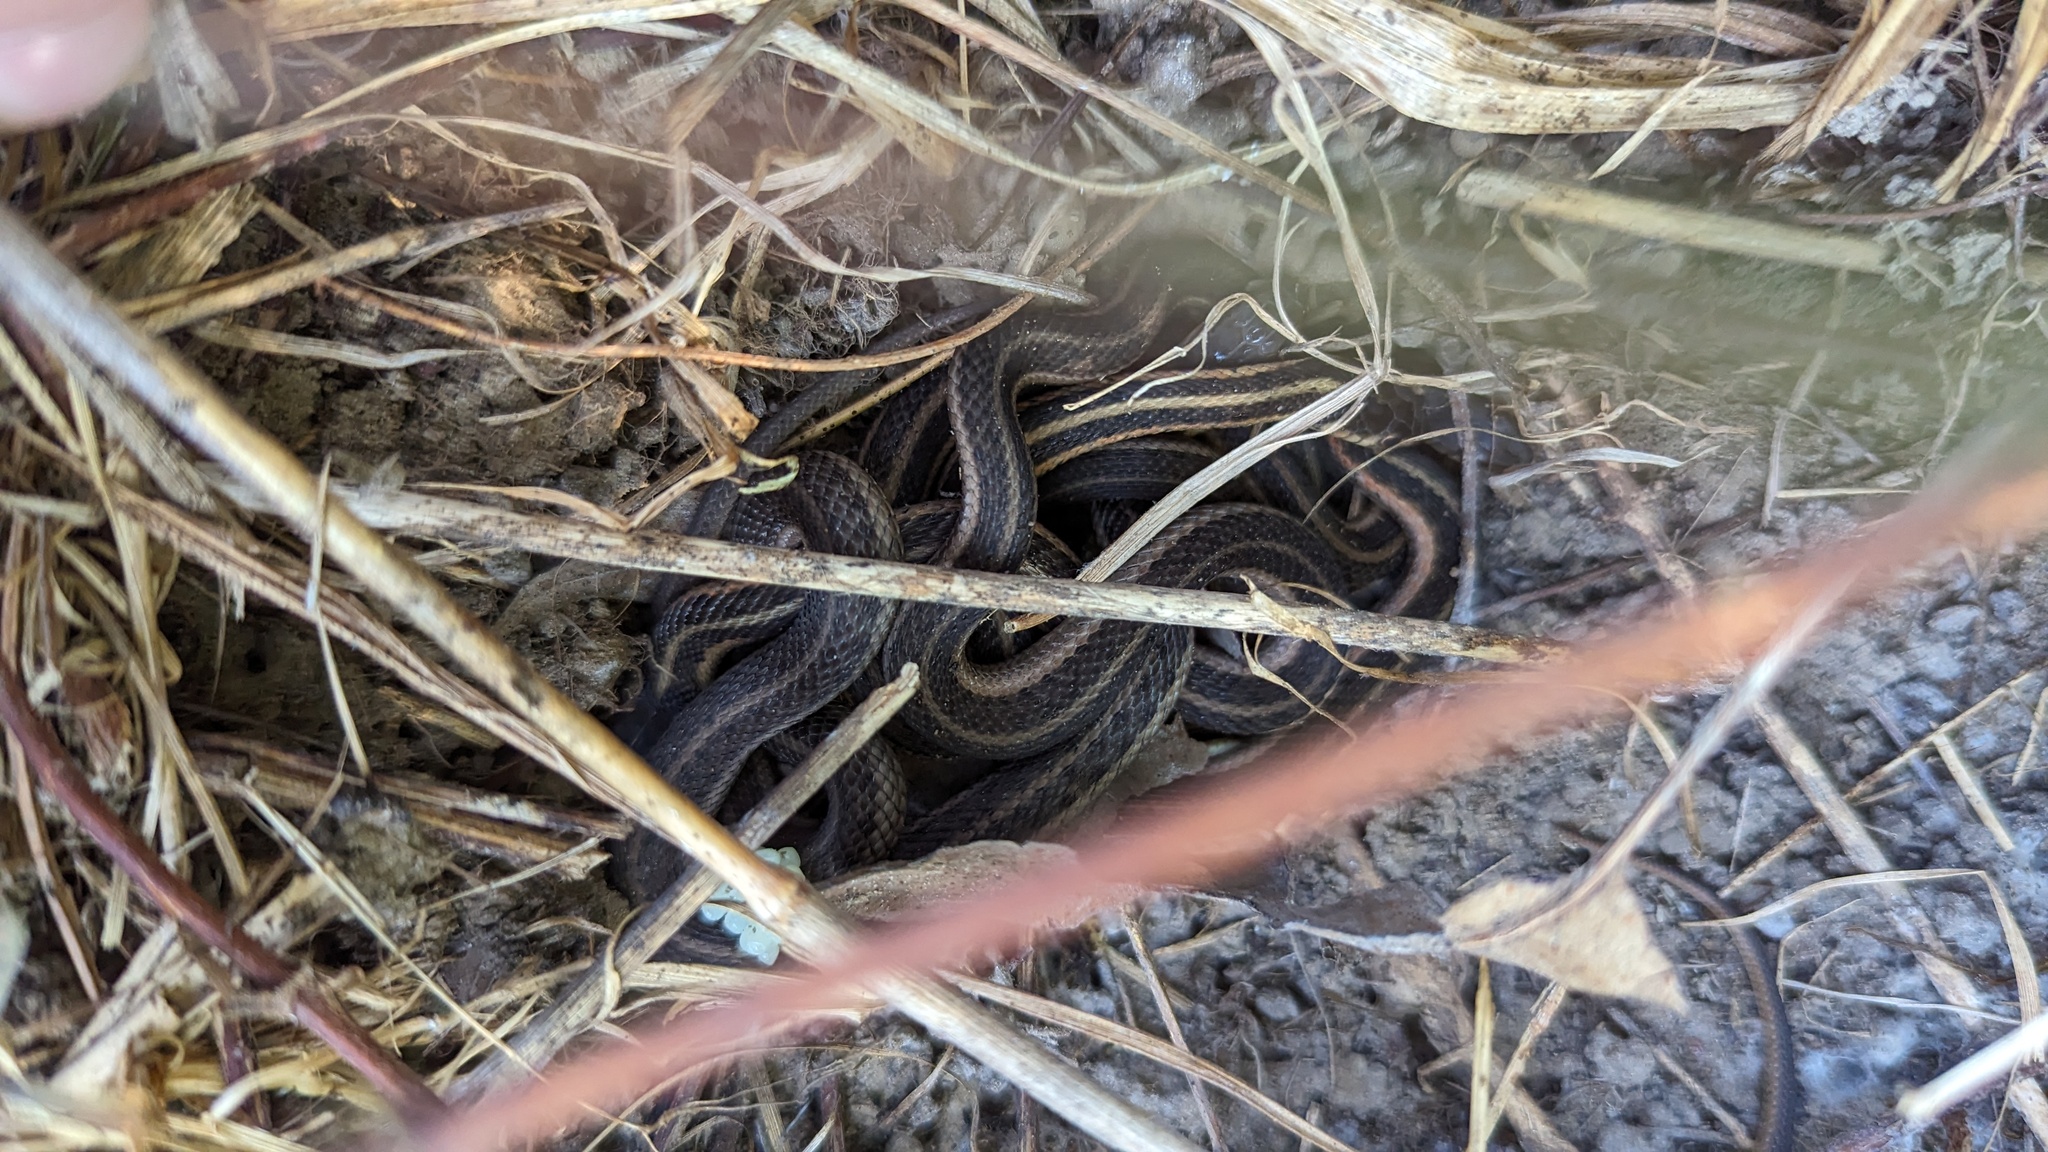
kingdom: Animalia
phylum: Chordata
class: Squamata
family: Colubridae
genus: Thamnophis
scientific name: Thamnophis sirtalis
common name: Common garter snake
